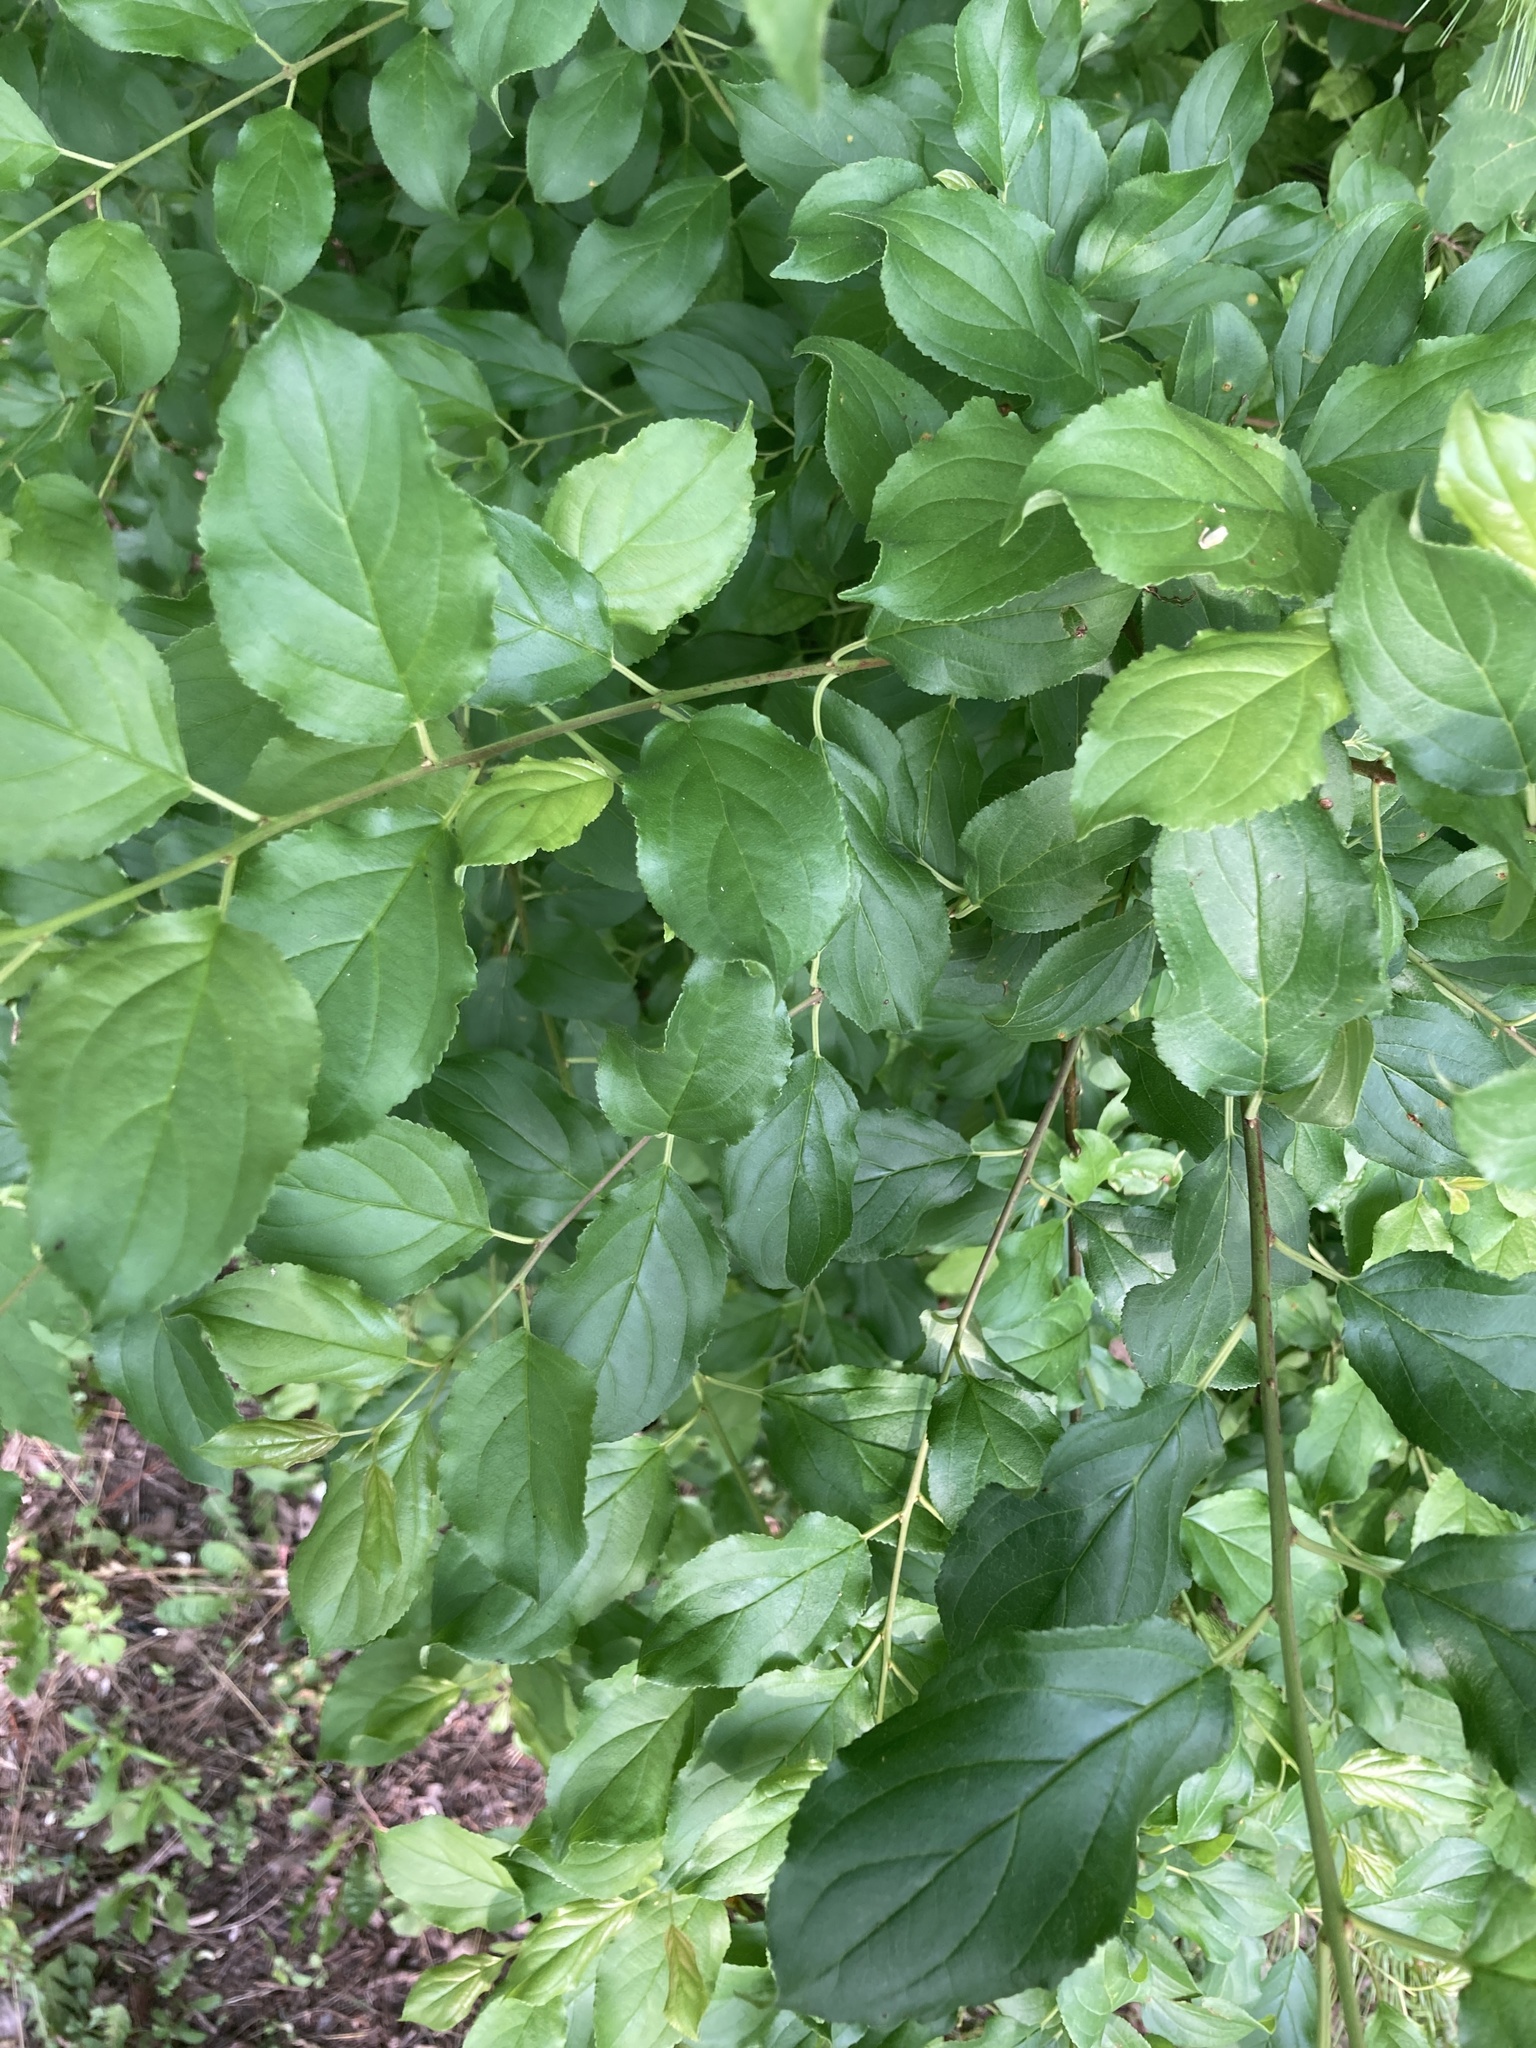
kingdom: Plantae
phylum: Tracheophyta
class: Magnoliopsida
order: Rosales
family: Rhamnaceae
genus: Rhamnus
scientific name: Rhamnus cathartica
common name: Common buckthorn
